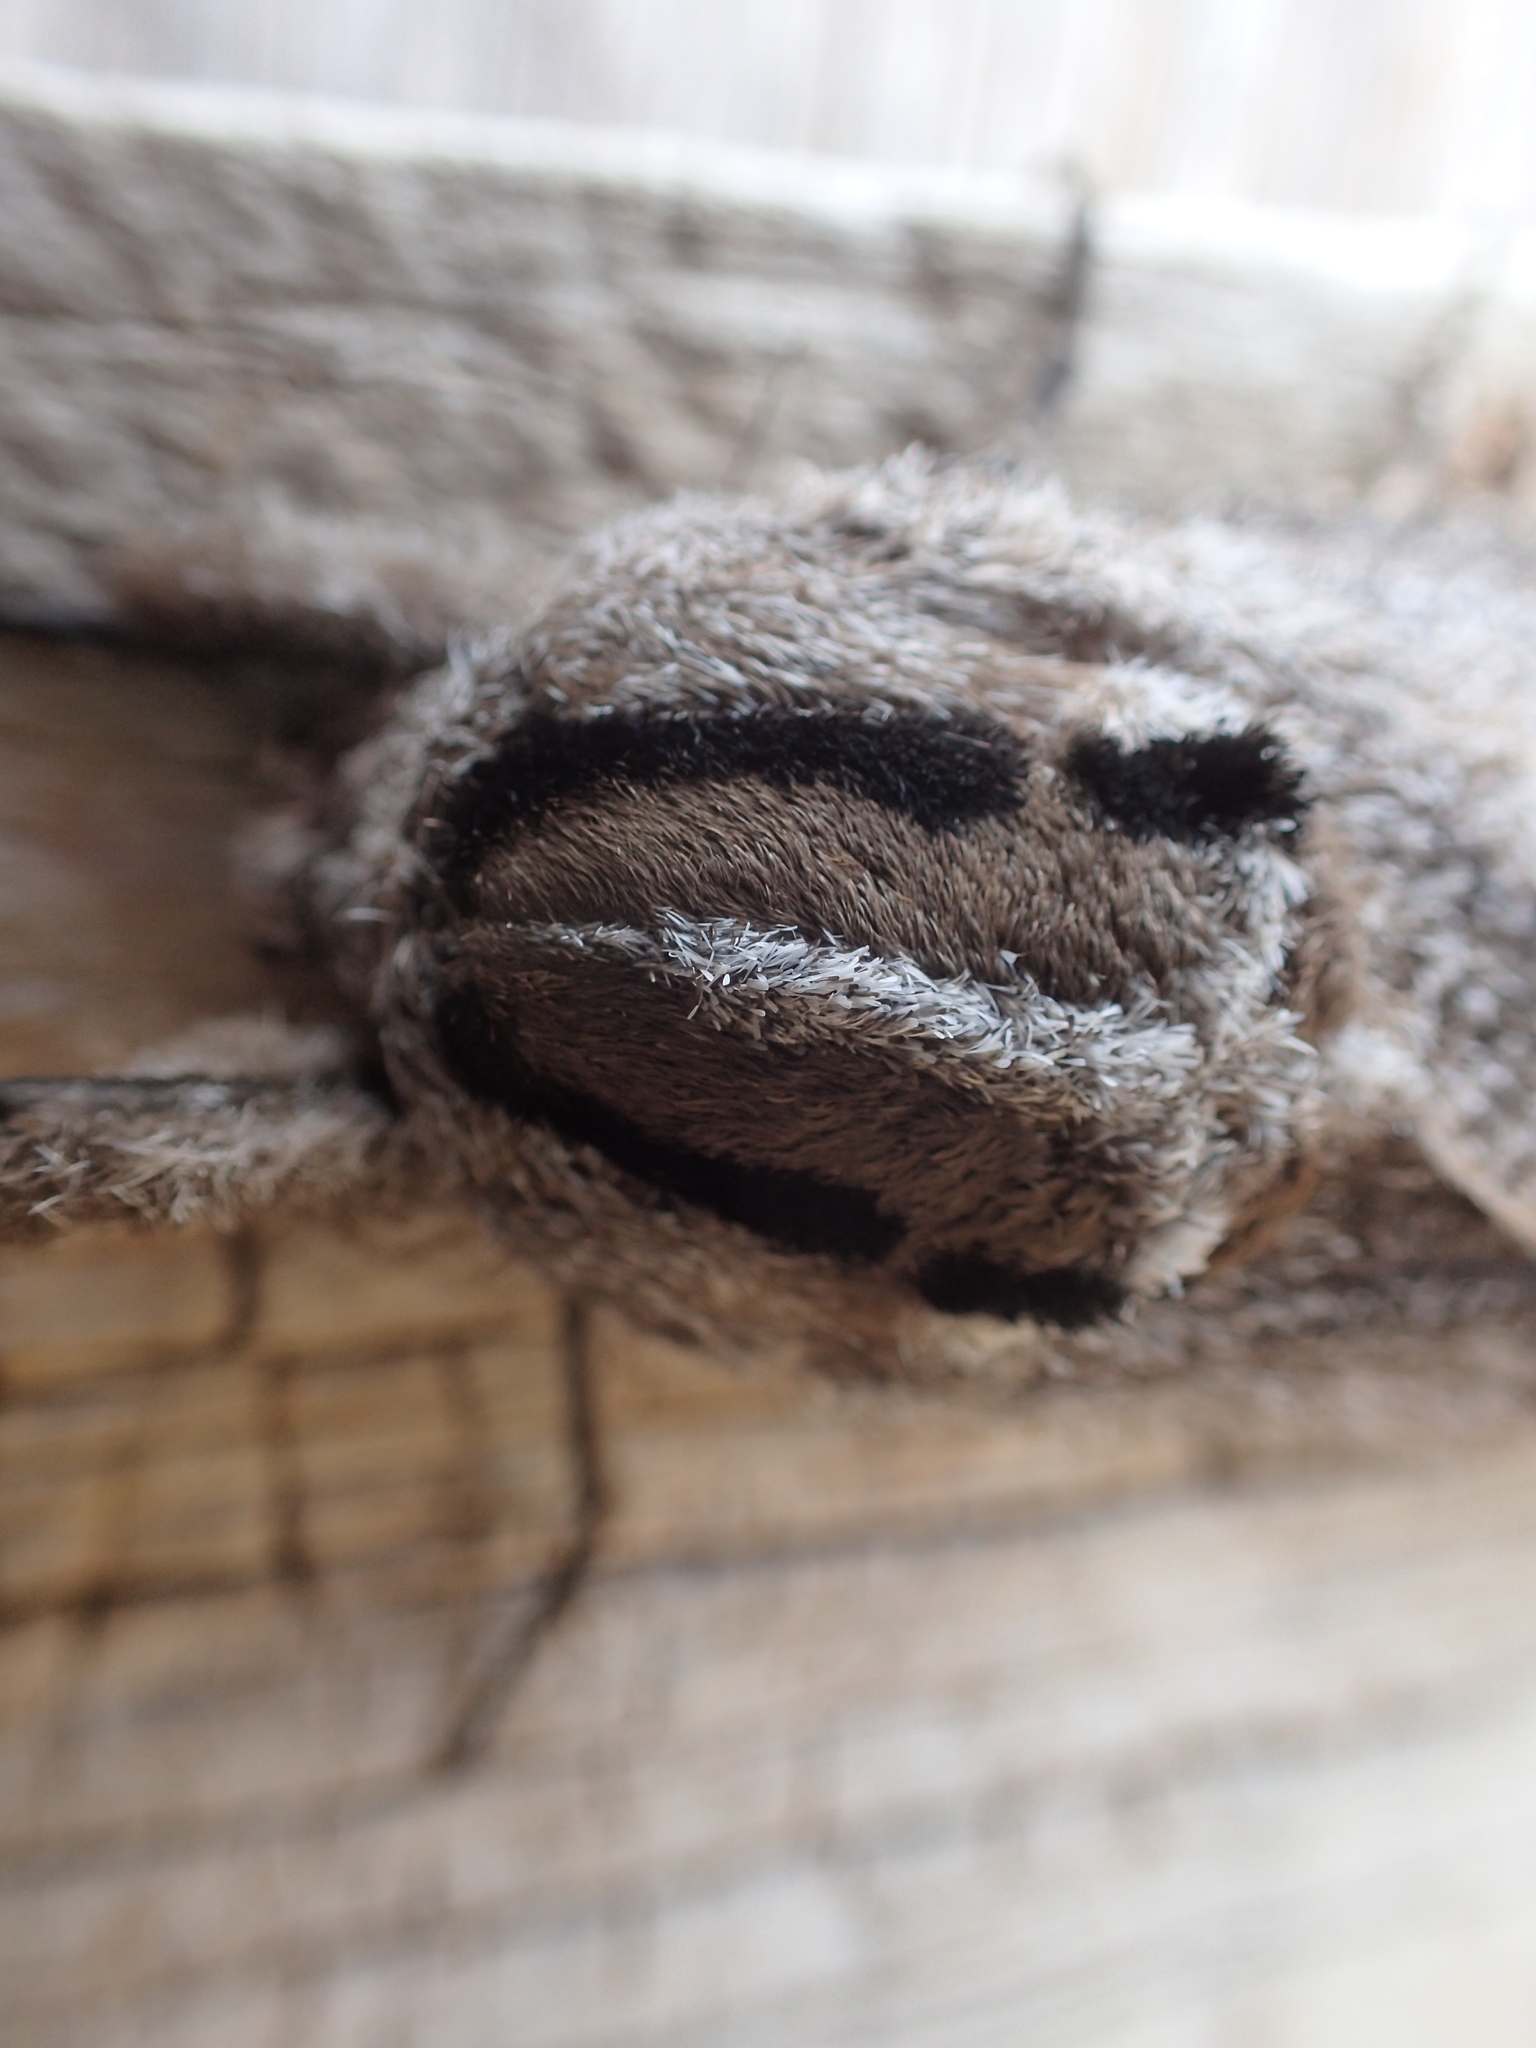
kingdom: Animalia
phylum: Arthropoda
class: Insecta
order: Lepidoptera
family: Cossidae
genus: Endoxyla
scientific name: Endoxyla liturata
